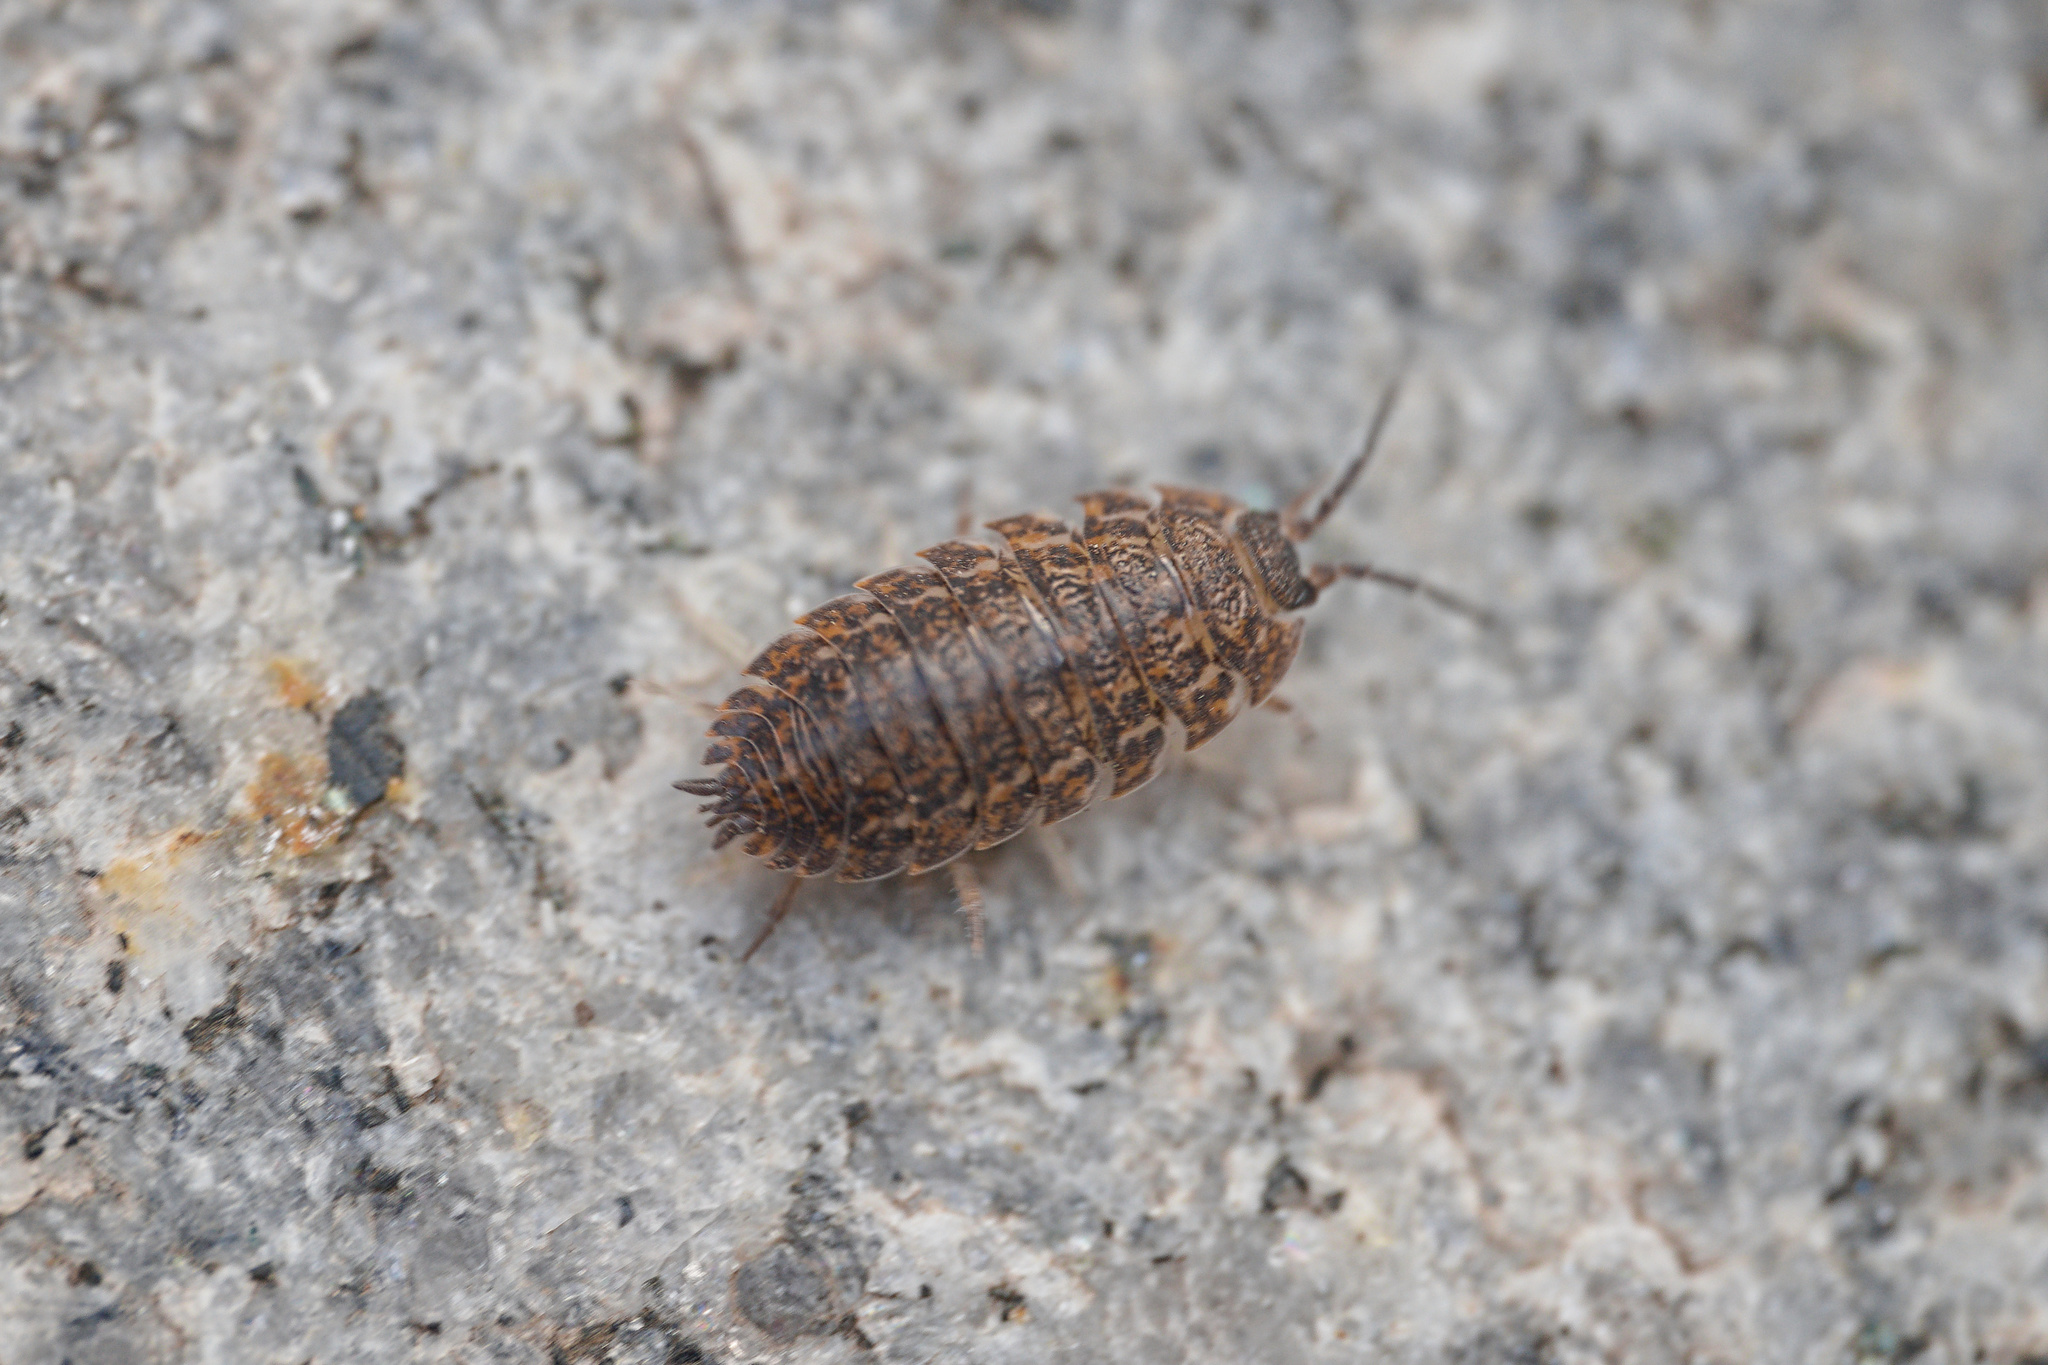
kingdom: Animalia
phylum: Arthropoda
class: Malacostraca
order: Isopoda
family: Trachelipodidae
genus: Trachelipus
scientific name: Trachelipus rathkii
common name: Isopod
